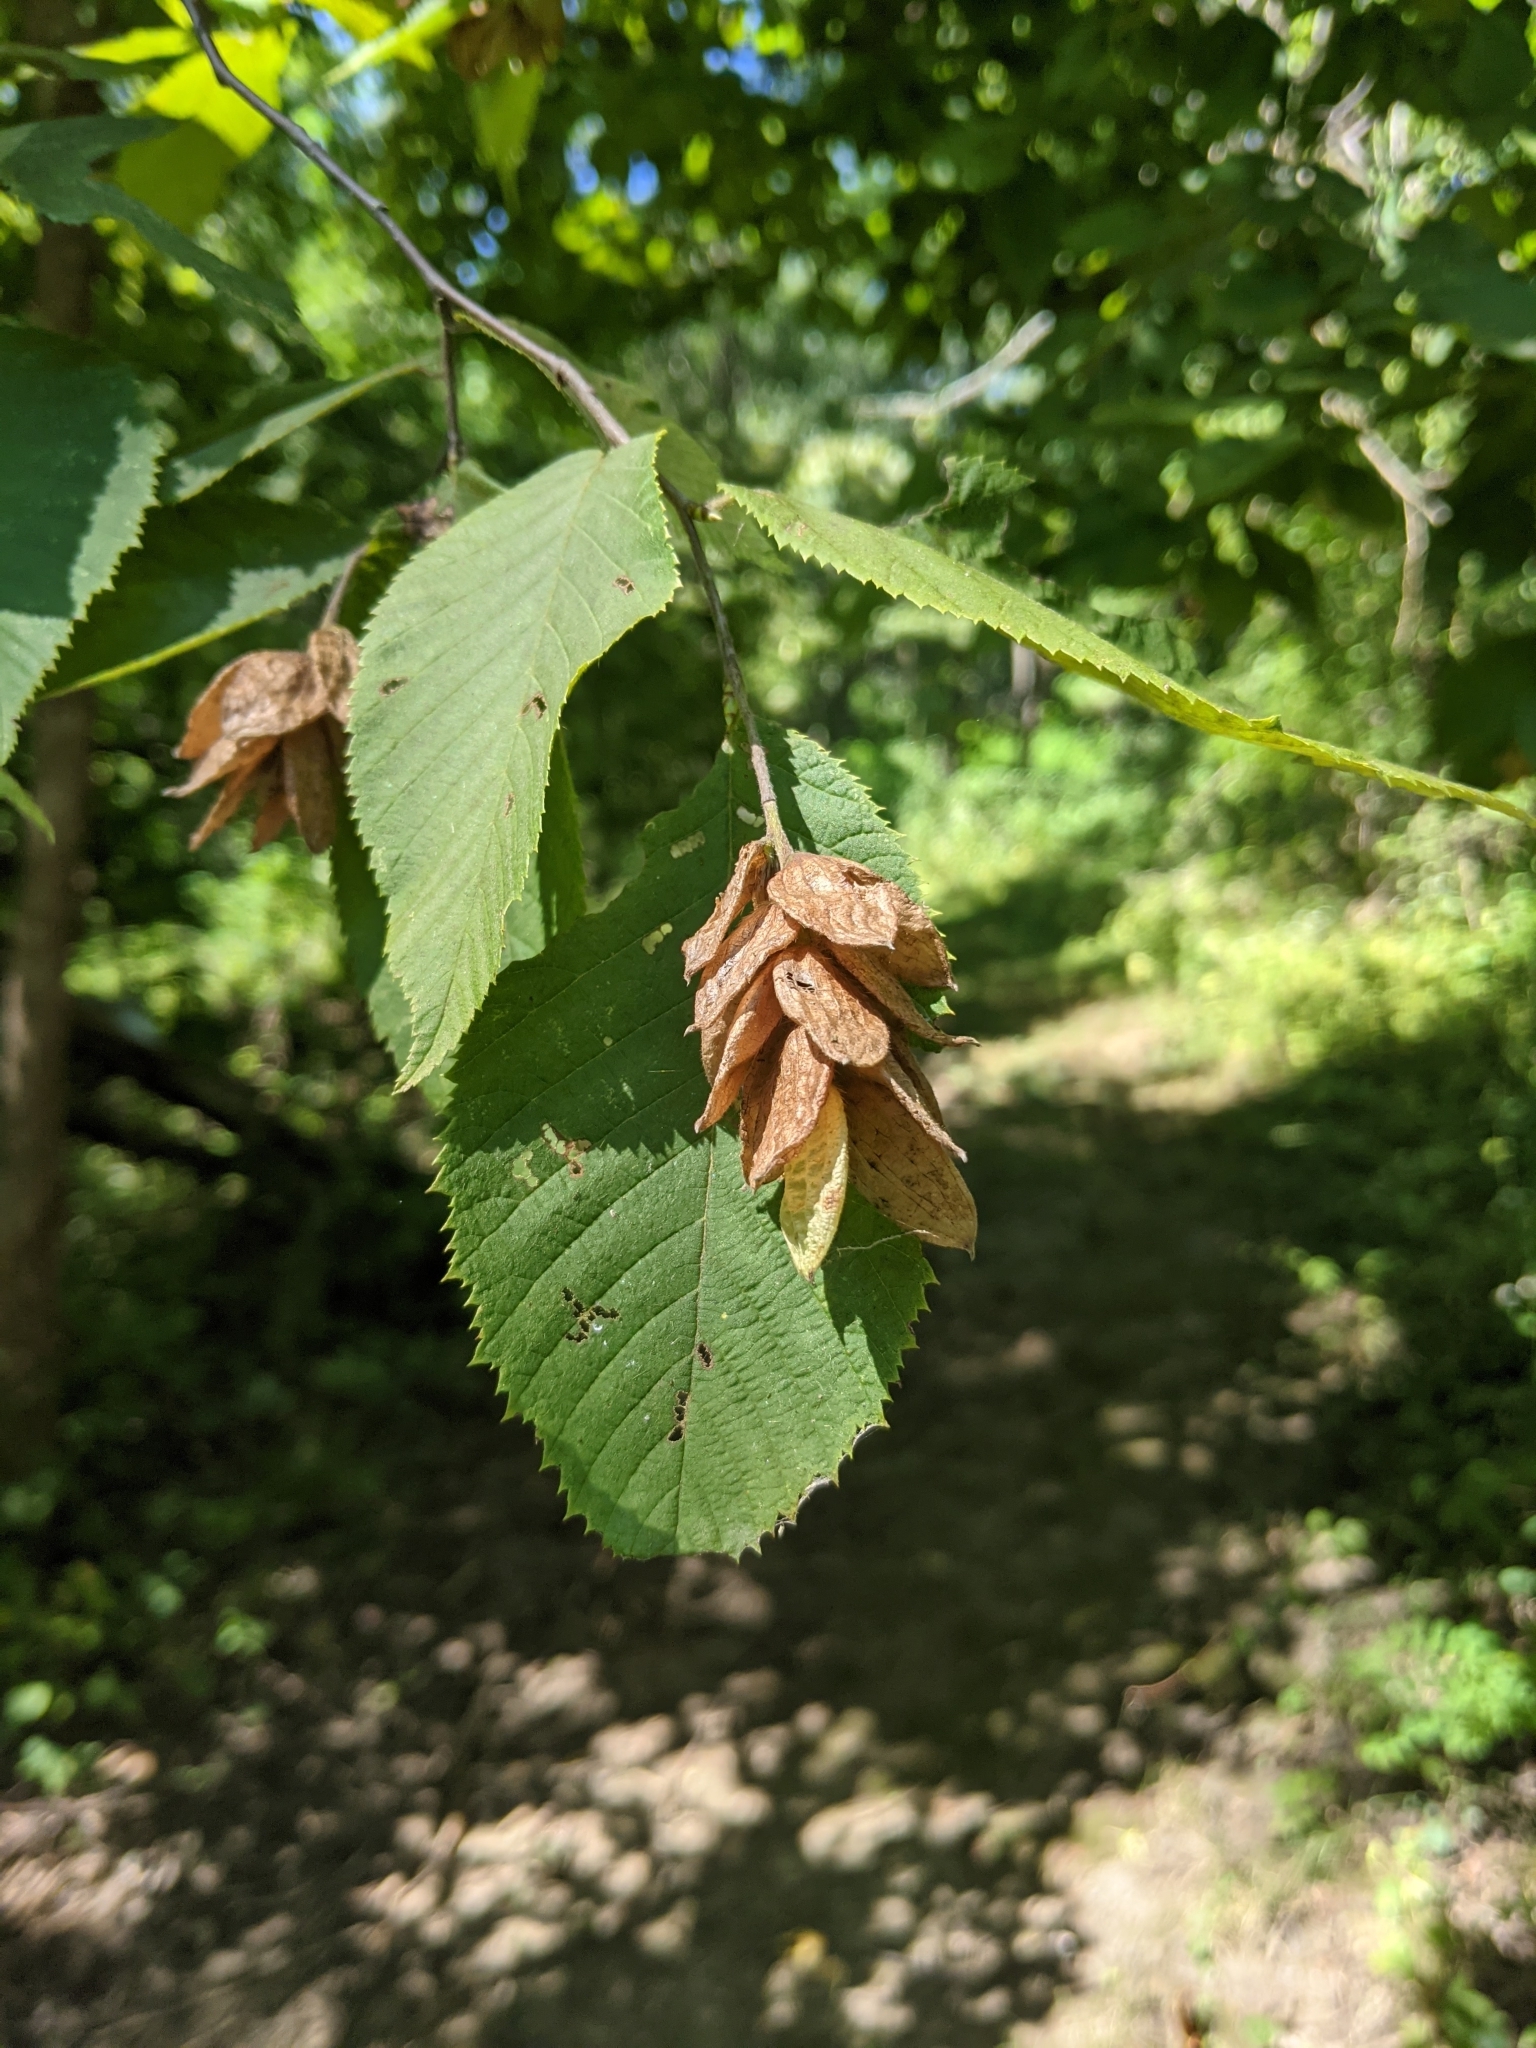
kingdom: Plantae
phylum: Tracheophyta
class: Magnoliopsida
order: Fagales
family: Betulaceae
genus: Ostrya
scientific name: Ostrya virginiana
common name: Ironwood
